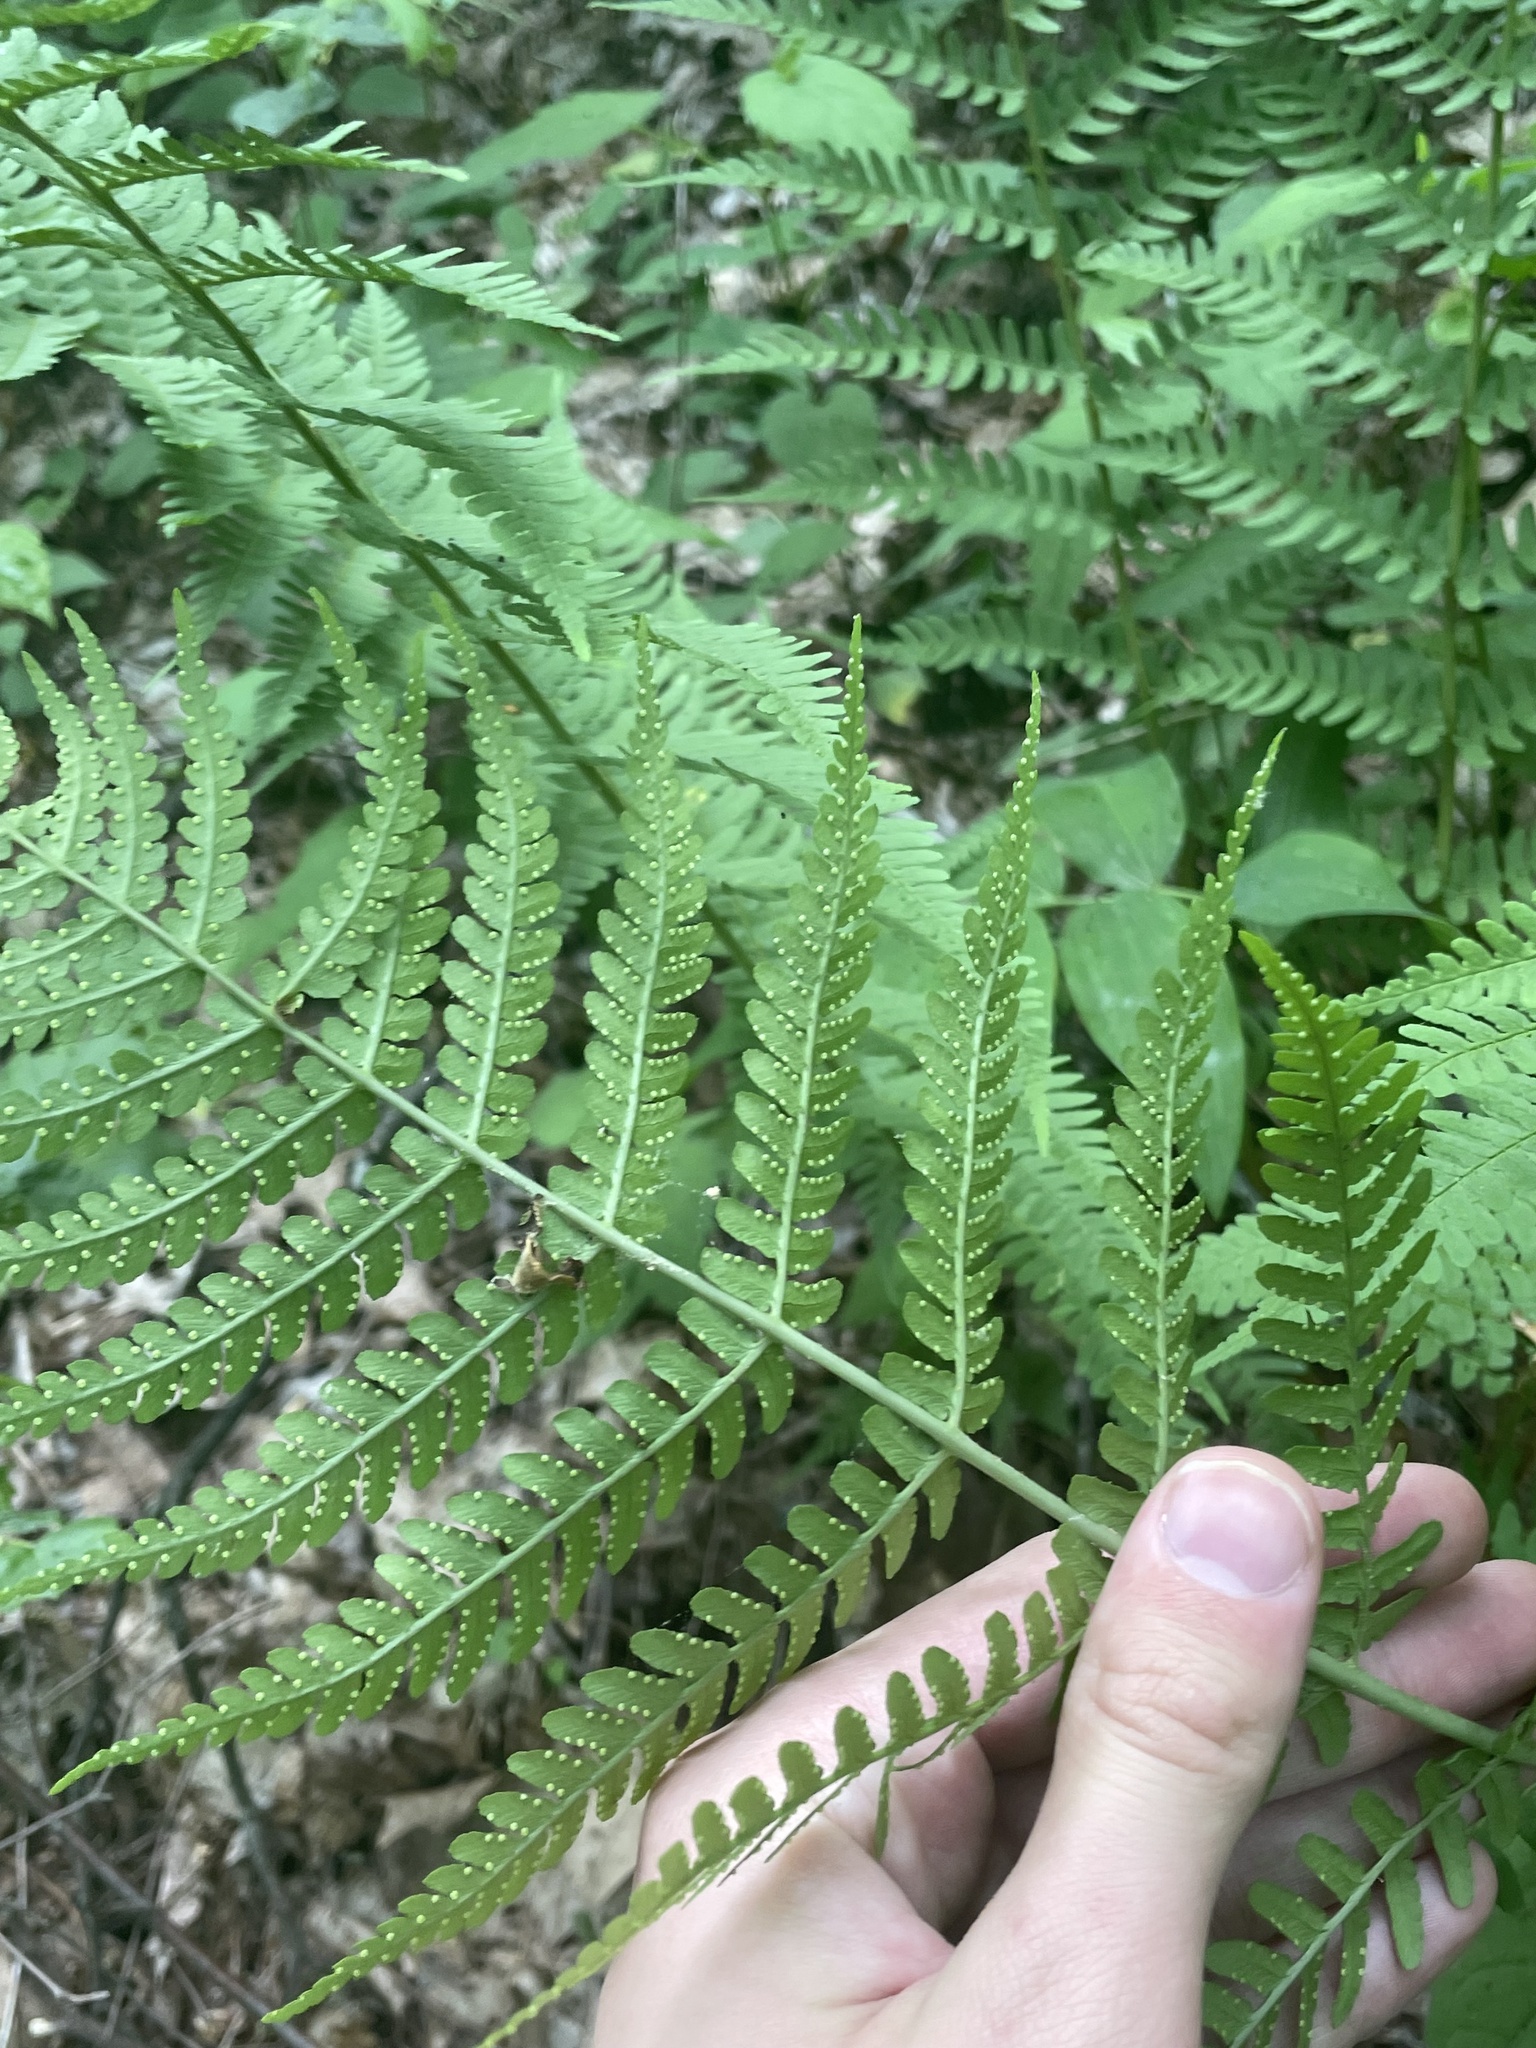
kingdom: Plantae
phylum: Tracheophyta
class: Polypodiopsida
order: Polypodiales
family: Dryopteridaceae
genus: Dryopteris
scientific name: Dryopteris marginalis
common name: Marginal wood fern
